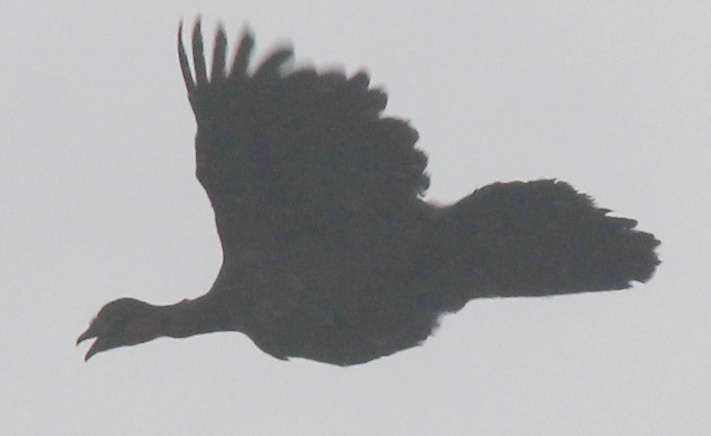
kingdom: Animalia
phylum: Chordata
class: Aves
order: Galliformes
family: Cracidae
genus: Penelope
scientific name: Penelope obscura
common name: Dusky-legged guan
